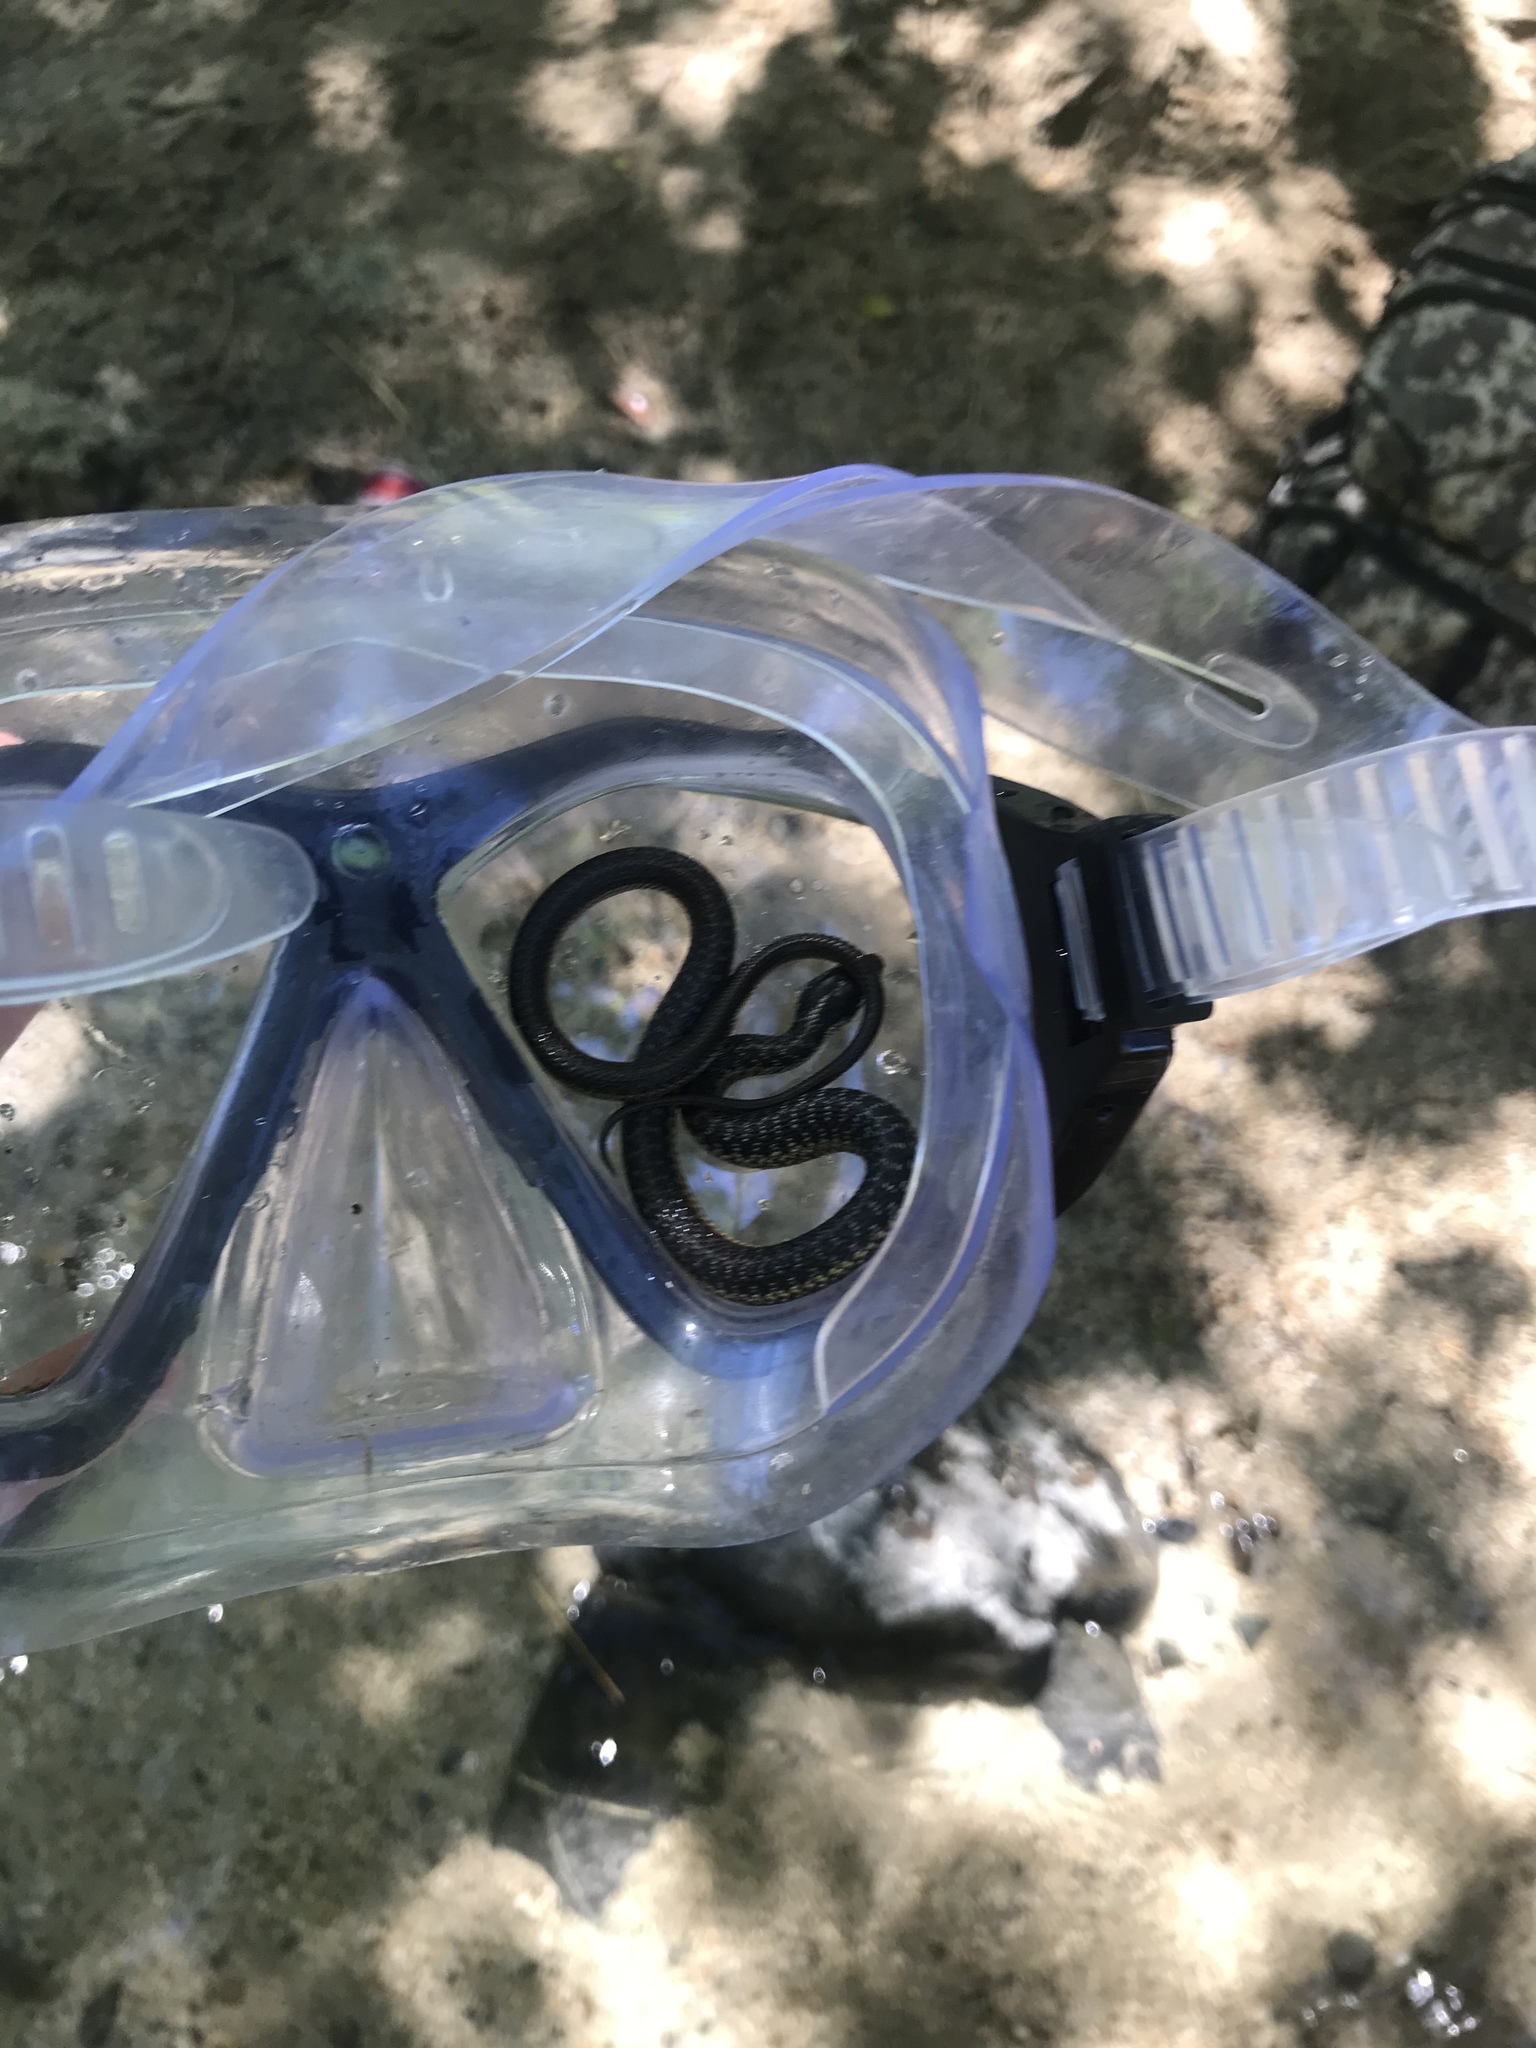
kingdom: Animalia
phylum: Chordata
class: Squamata
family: Colubridae
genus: Thamnophis
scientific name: Thamnophis atratus
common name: Pacific coast aquatic garter snake
